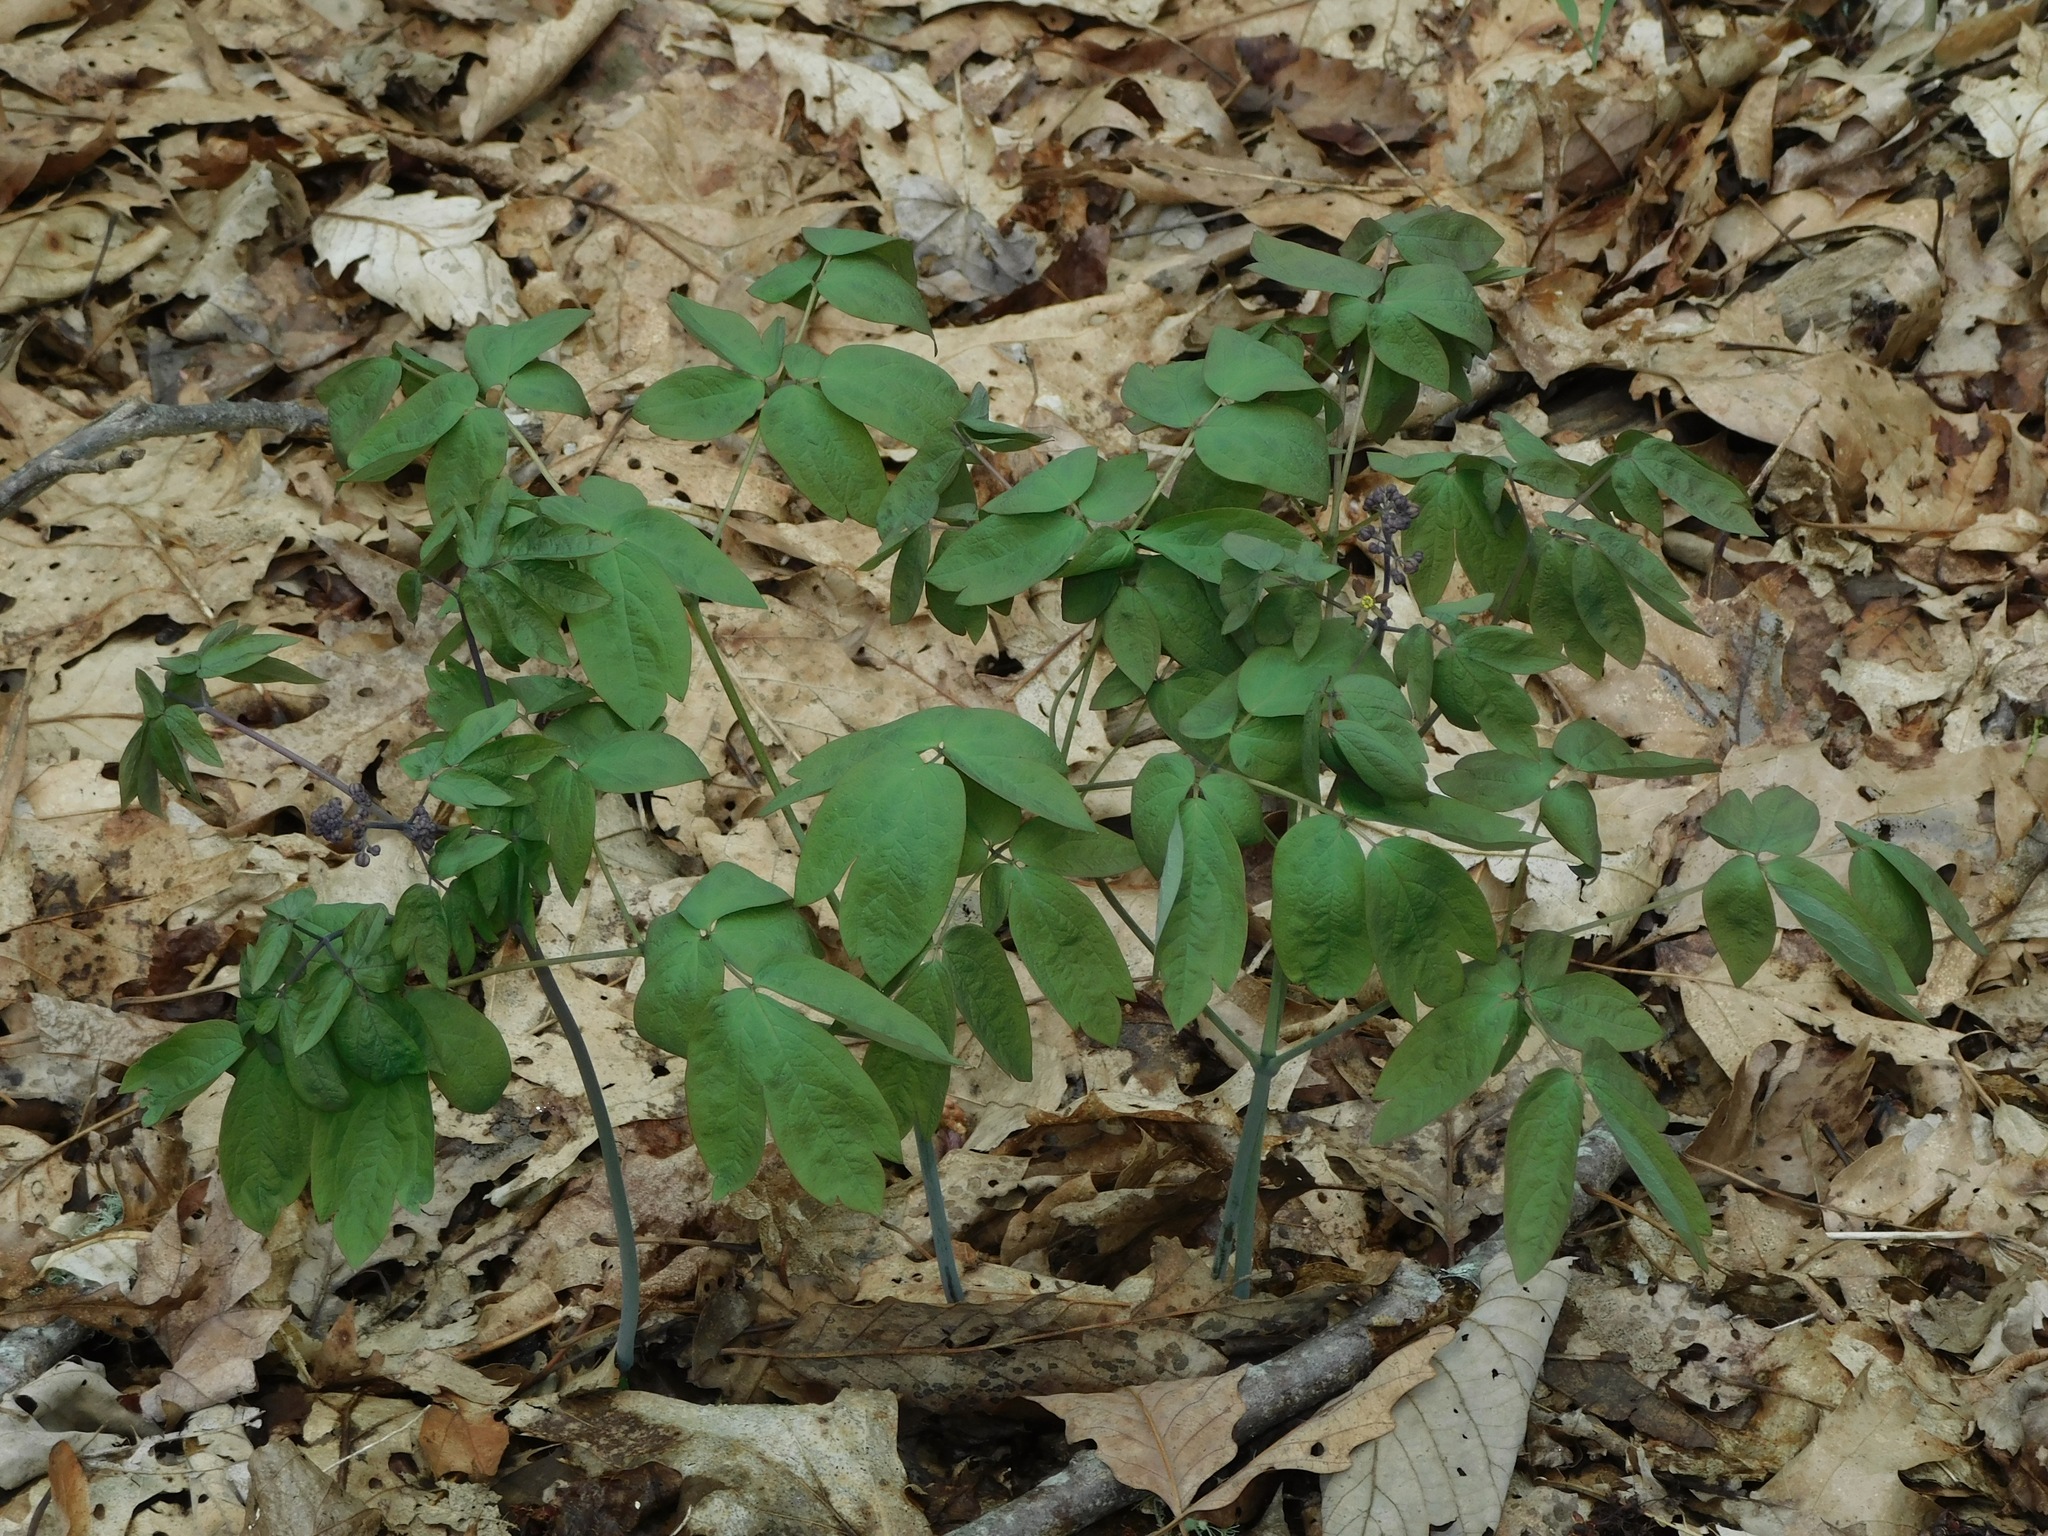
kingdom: Plantae
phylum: Tracheophyta
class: Magnoliopsida
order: Ranunculales
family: Berberidaceae
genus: Caulophyllum
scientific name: Caulophyllum giganteum
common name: Blue cohosh
